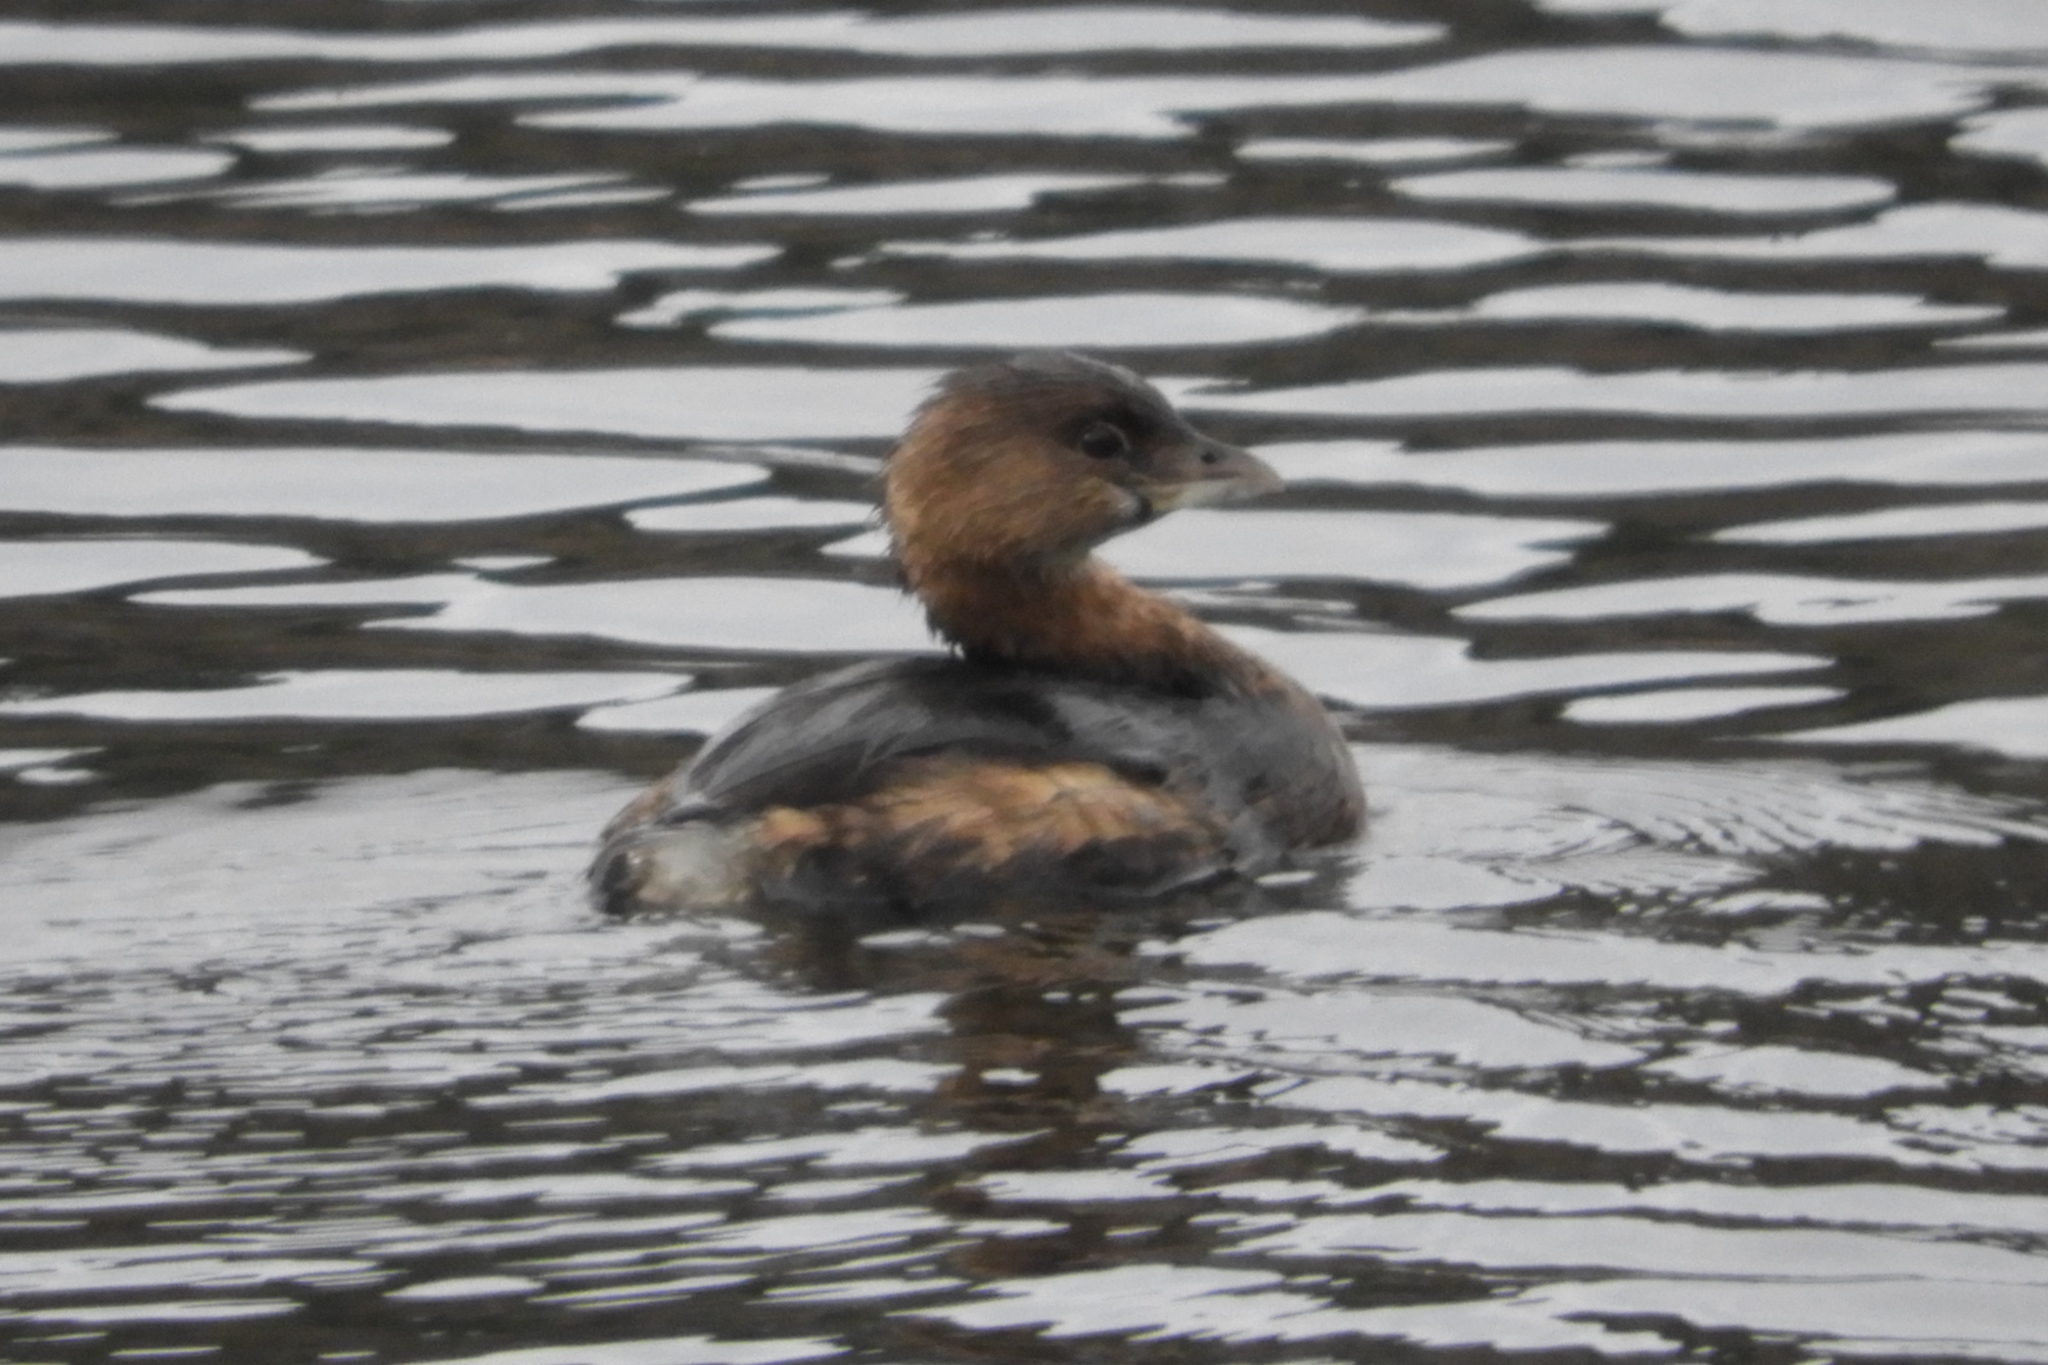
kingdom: Animalia
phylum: Chordata
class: Aves
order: Podicipediformes
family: Podicipedidae
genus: Podilymbus
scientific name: Podilymbus podiceps
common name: Pied-billed grebe
